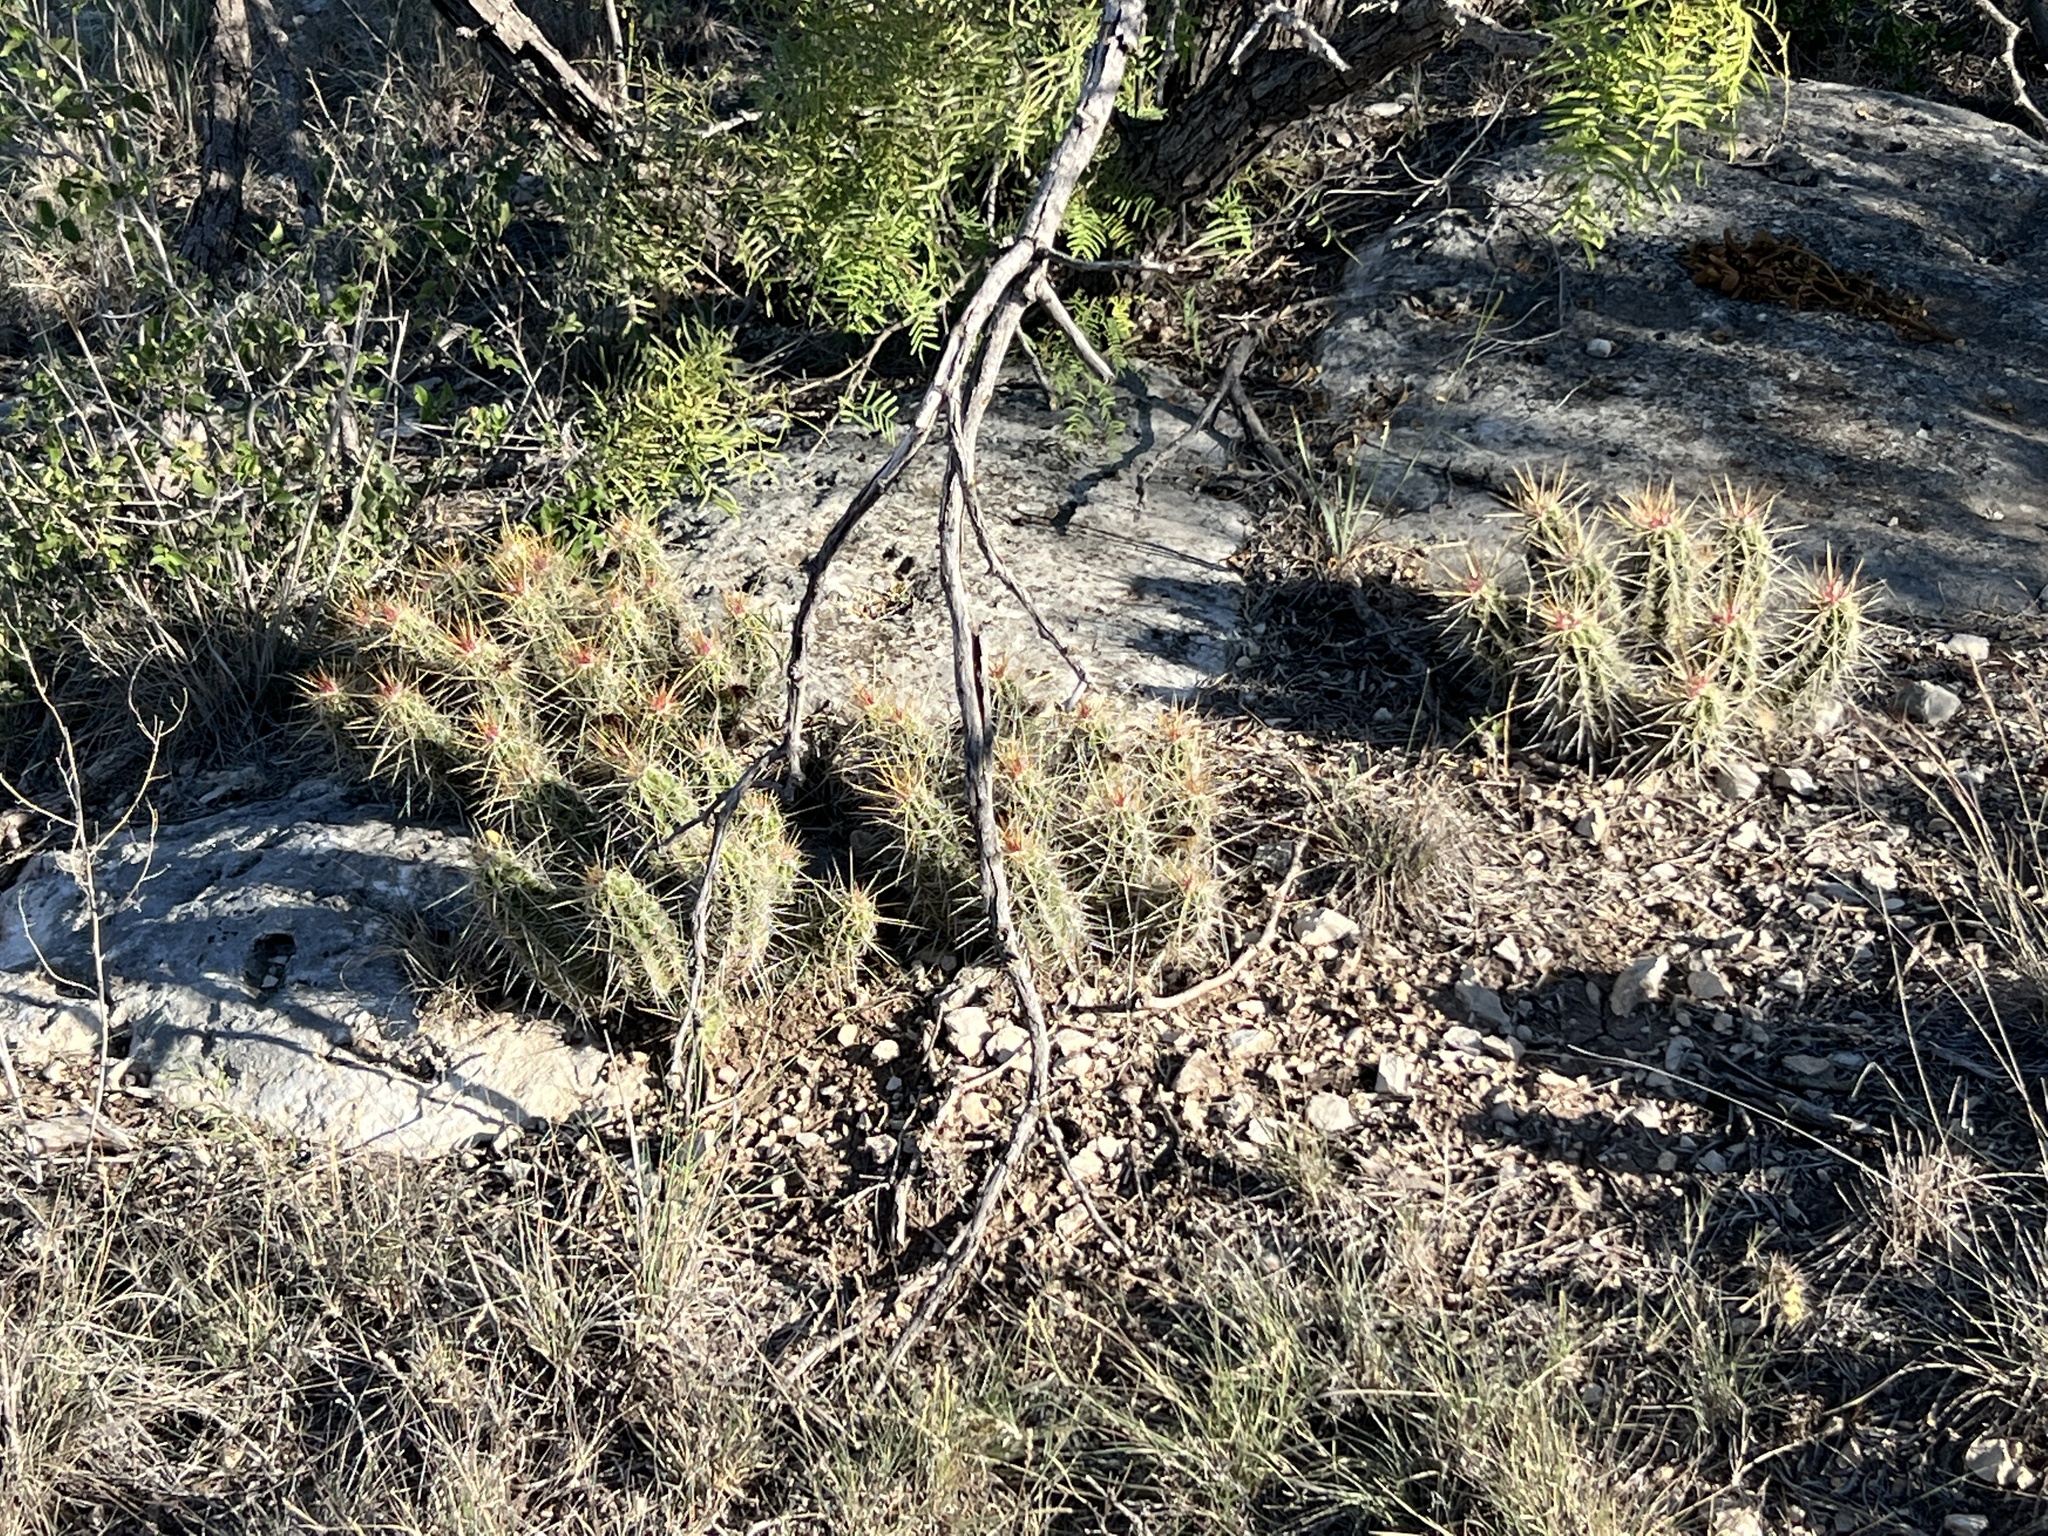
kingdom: Plantae
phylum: Tracheophyta
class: Magnoliopsida
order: Caryophyllales
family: Cactaceae
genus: Echinocereus
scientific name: Echinocereus enneacanthus
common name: Pitaya
